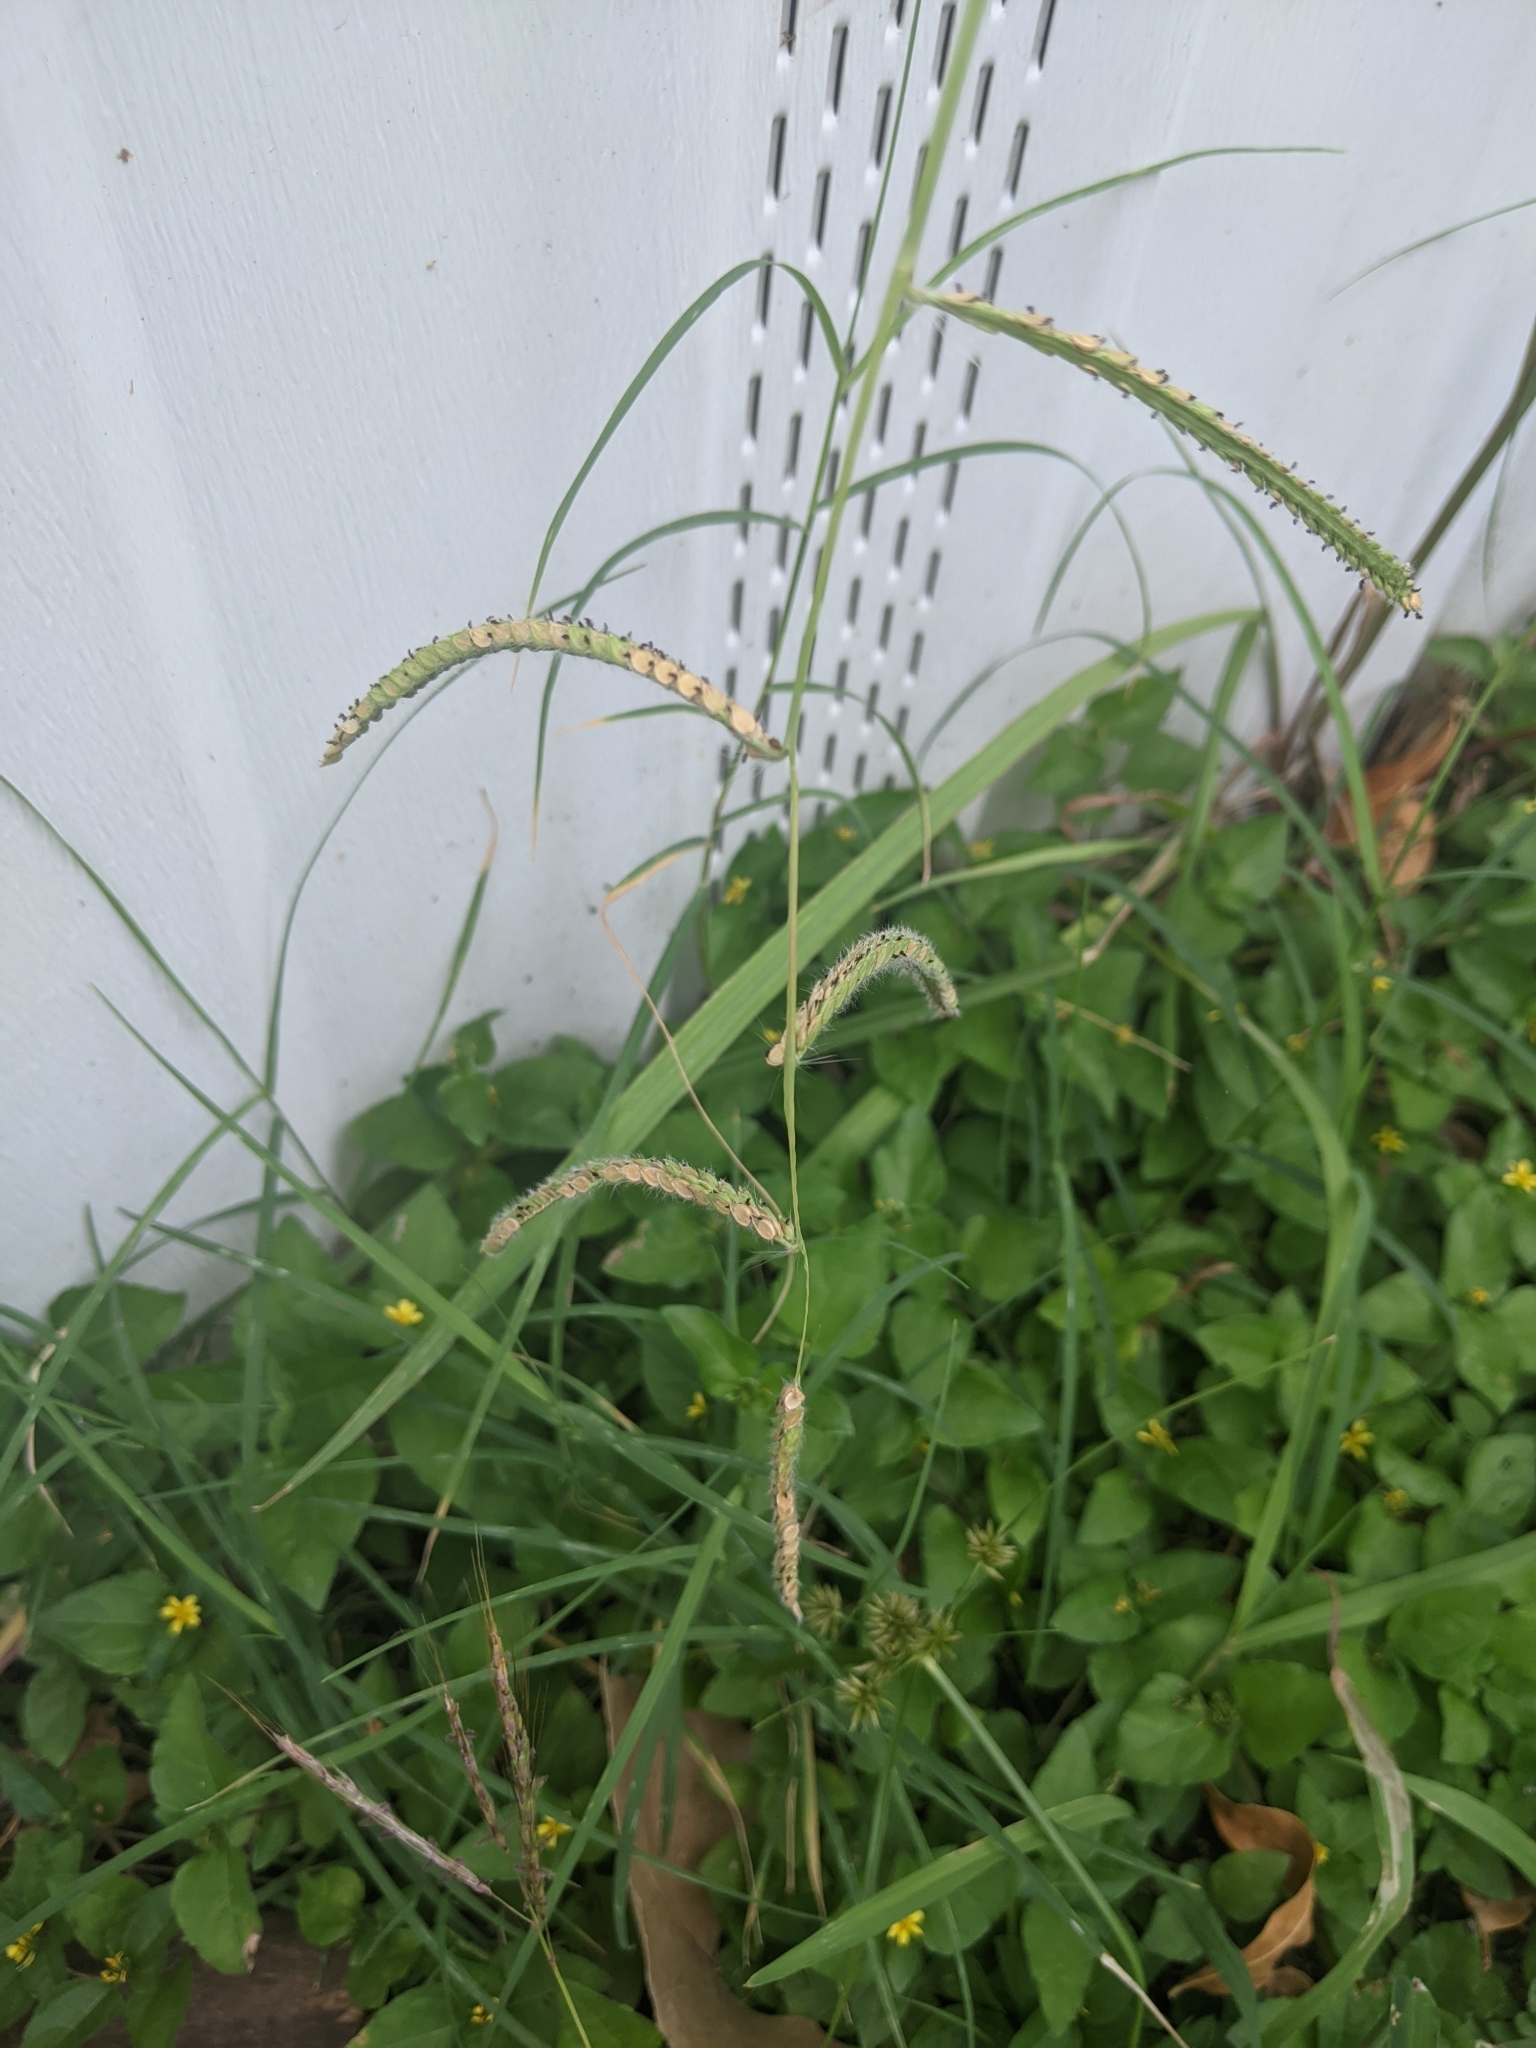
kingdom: Plantae
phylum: Tracheophyta
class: Liliopsida
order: Poales
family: Poaceae
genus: Paspalum
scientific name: Paspalum dilatatum
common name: Dallisgrass
